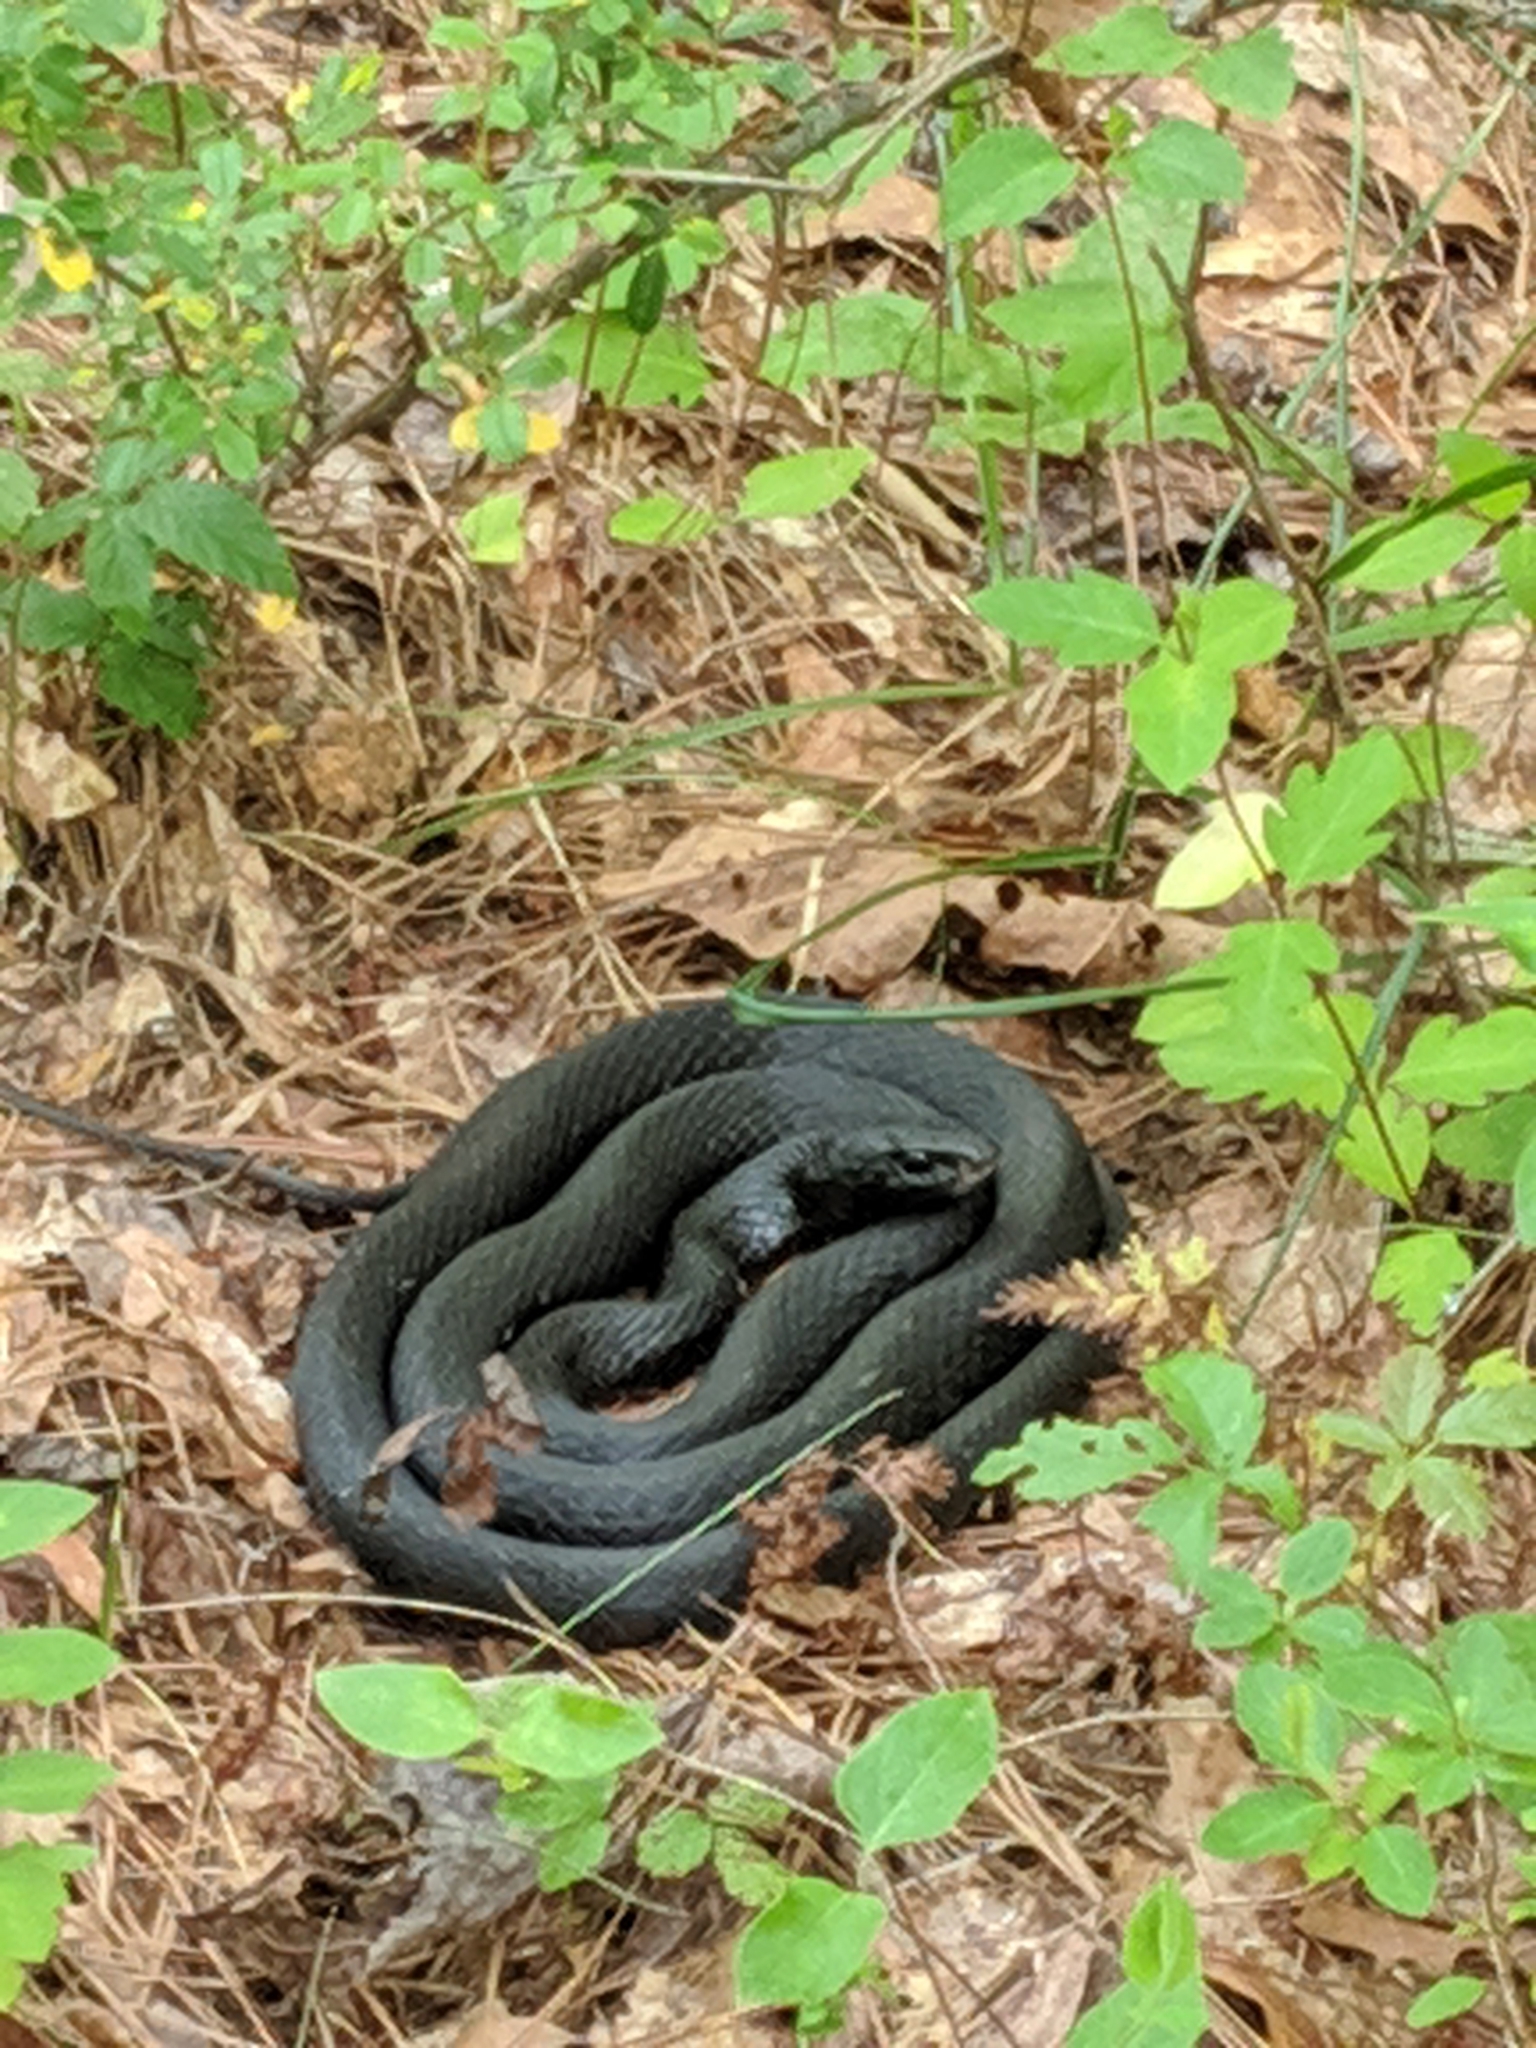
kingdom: Animalia
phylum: Chordata
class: Squamata
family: Colubridae
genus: Coluber
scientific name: Coluber constrictor
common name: Eastern racer
